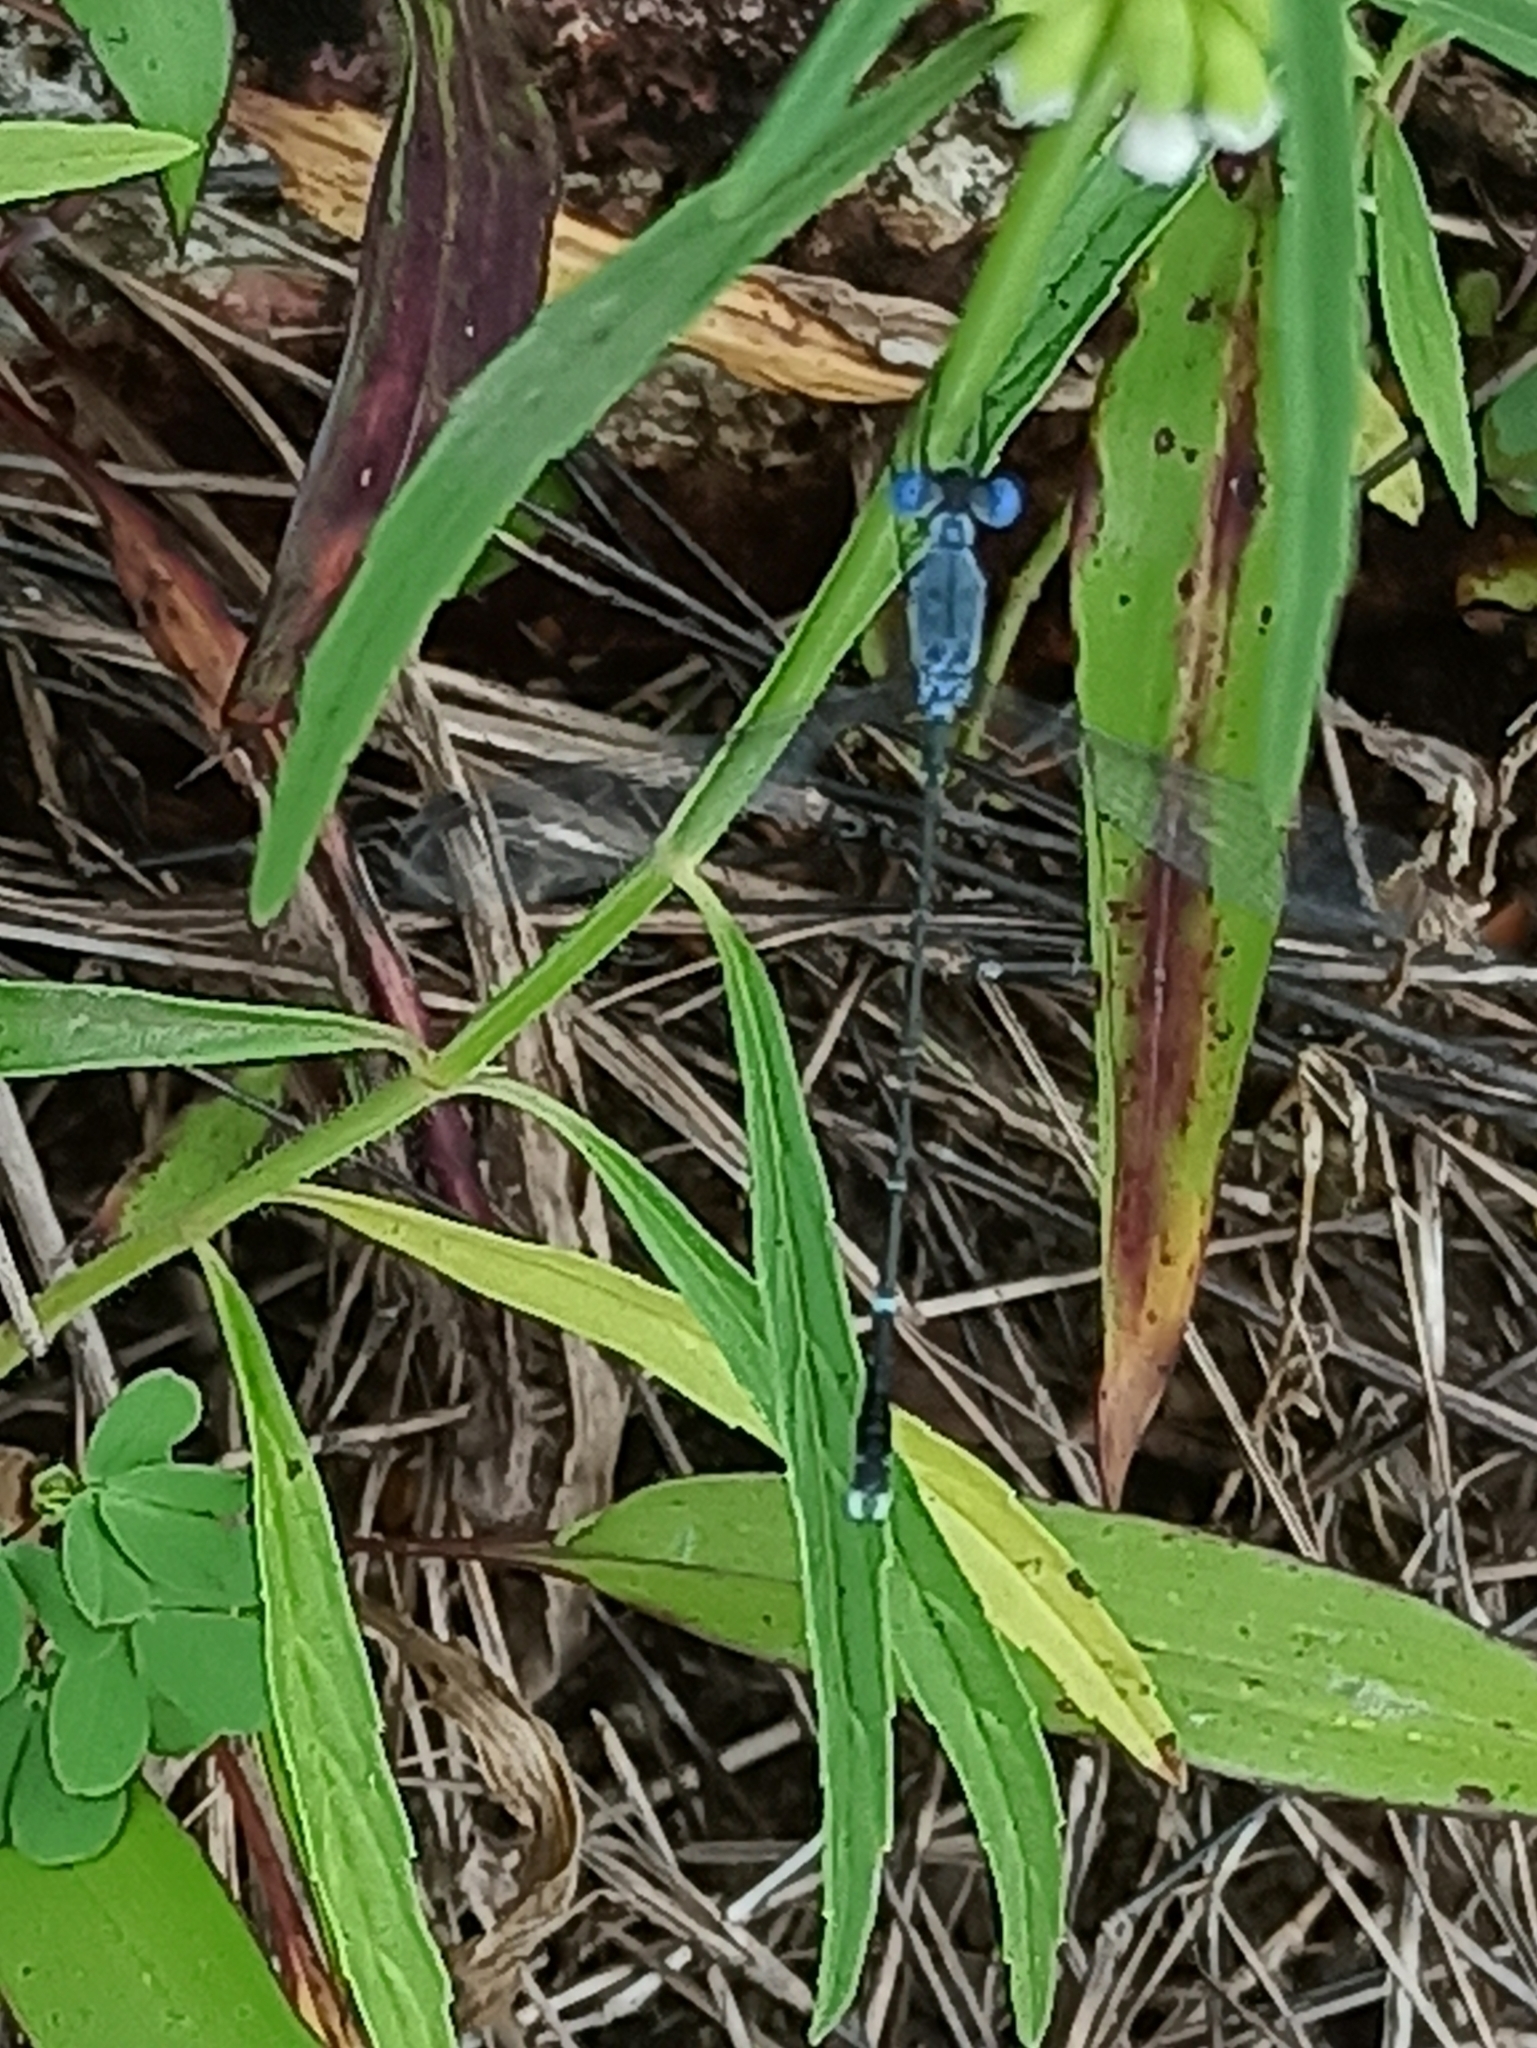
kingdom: Animalia
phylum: Arthropoda
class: Insecta
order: Odonata
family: Lestidae
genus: Lestes
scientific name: Lestes praemorsus
